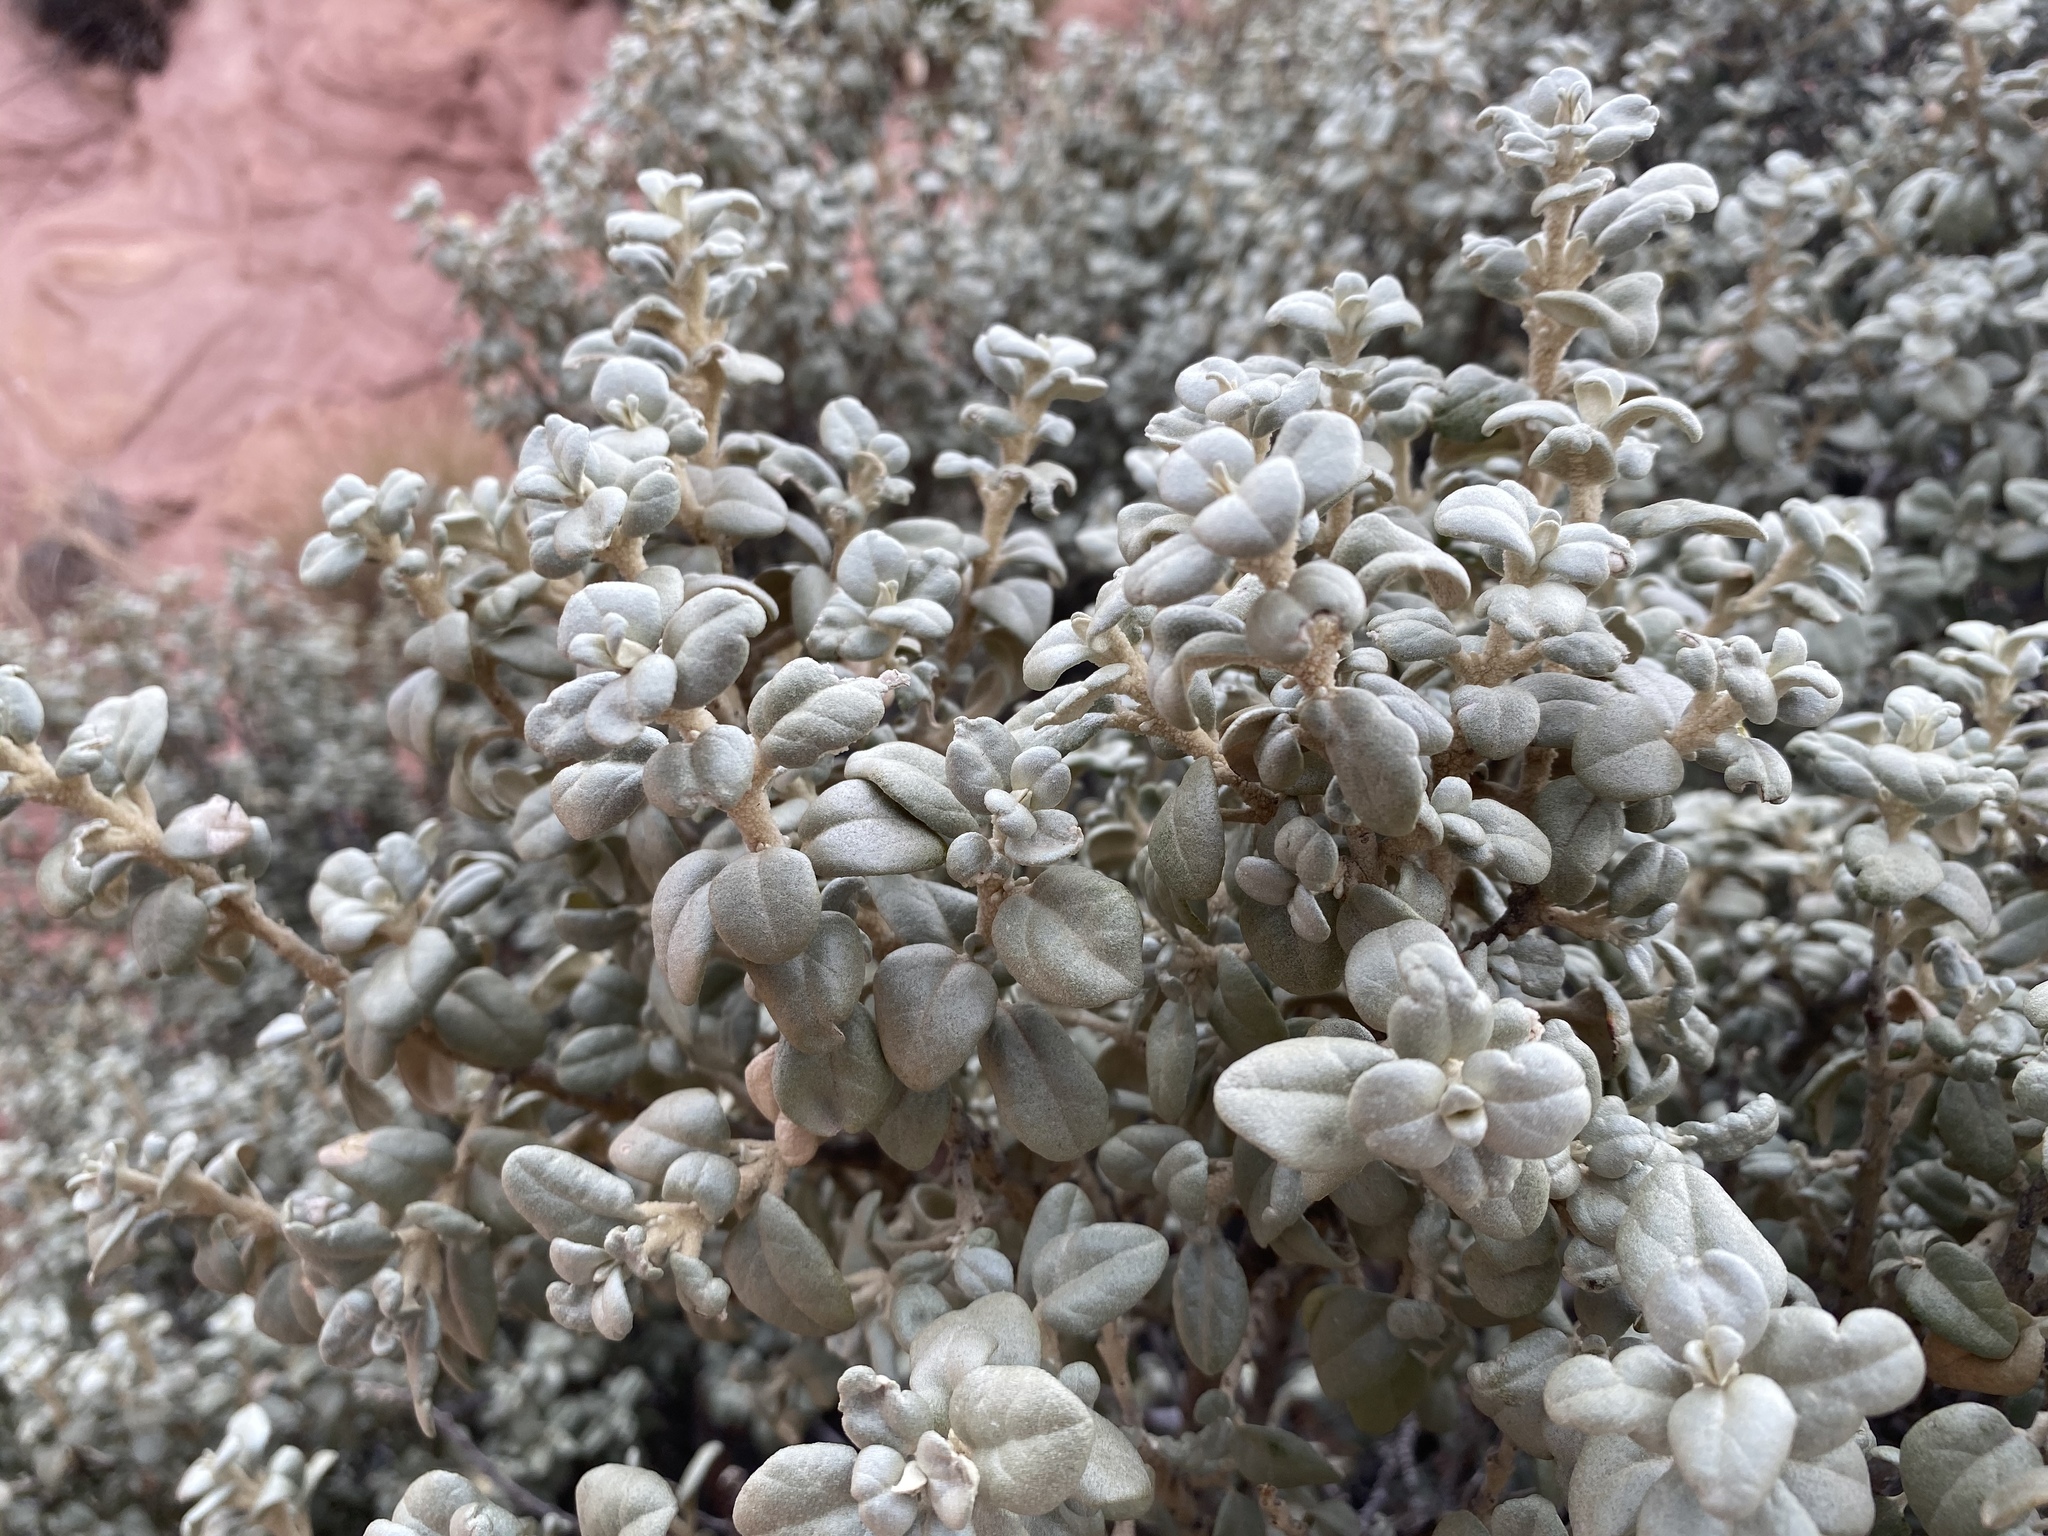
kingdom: Plantae
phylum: Tracheophyta
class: Magnoliopsida
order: Rosales
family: Elaeagnaceae
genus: Shepherdia
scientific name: Shepherdia rotundifolia
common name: Silverscale
